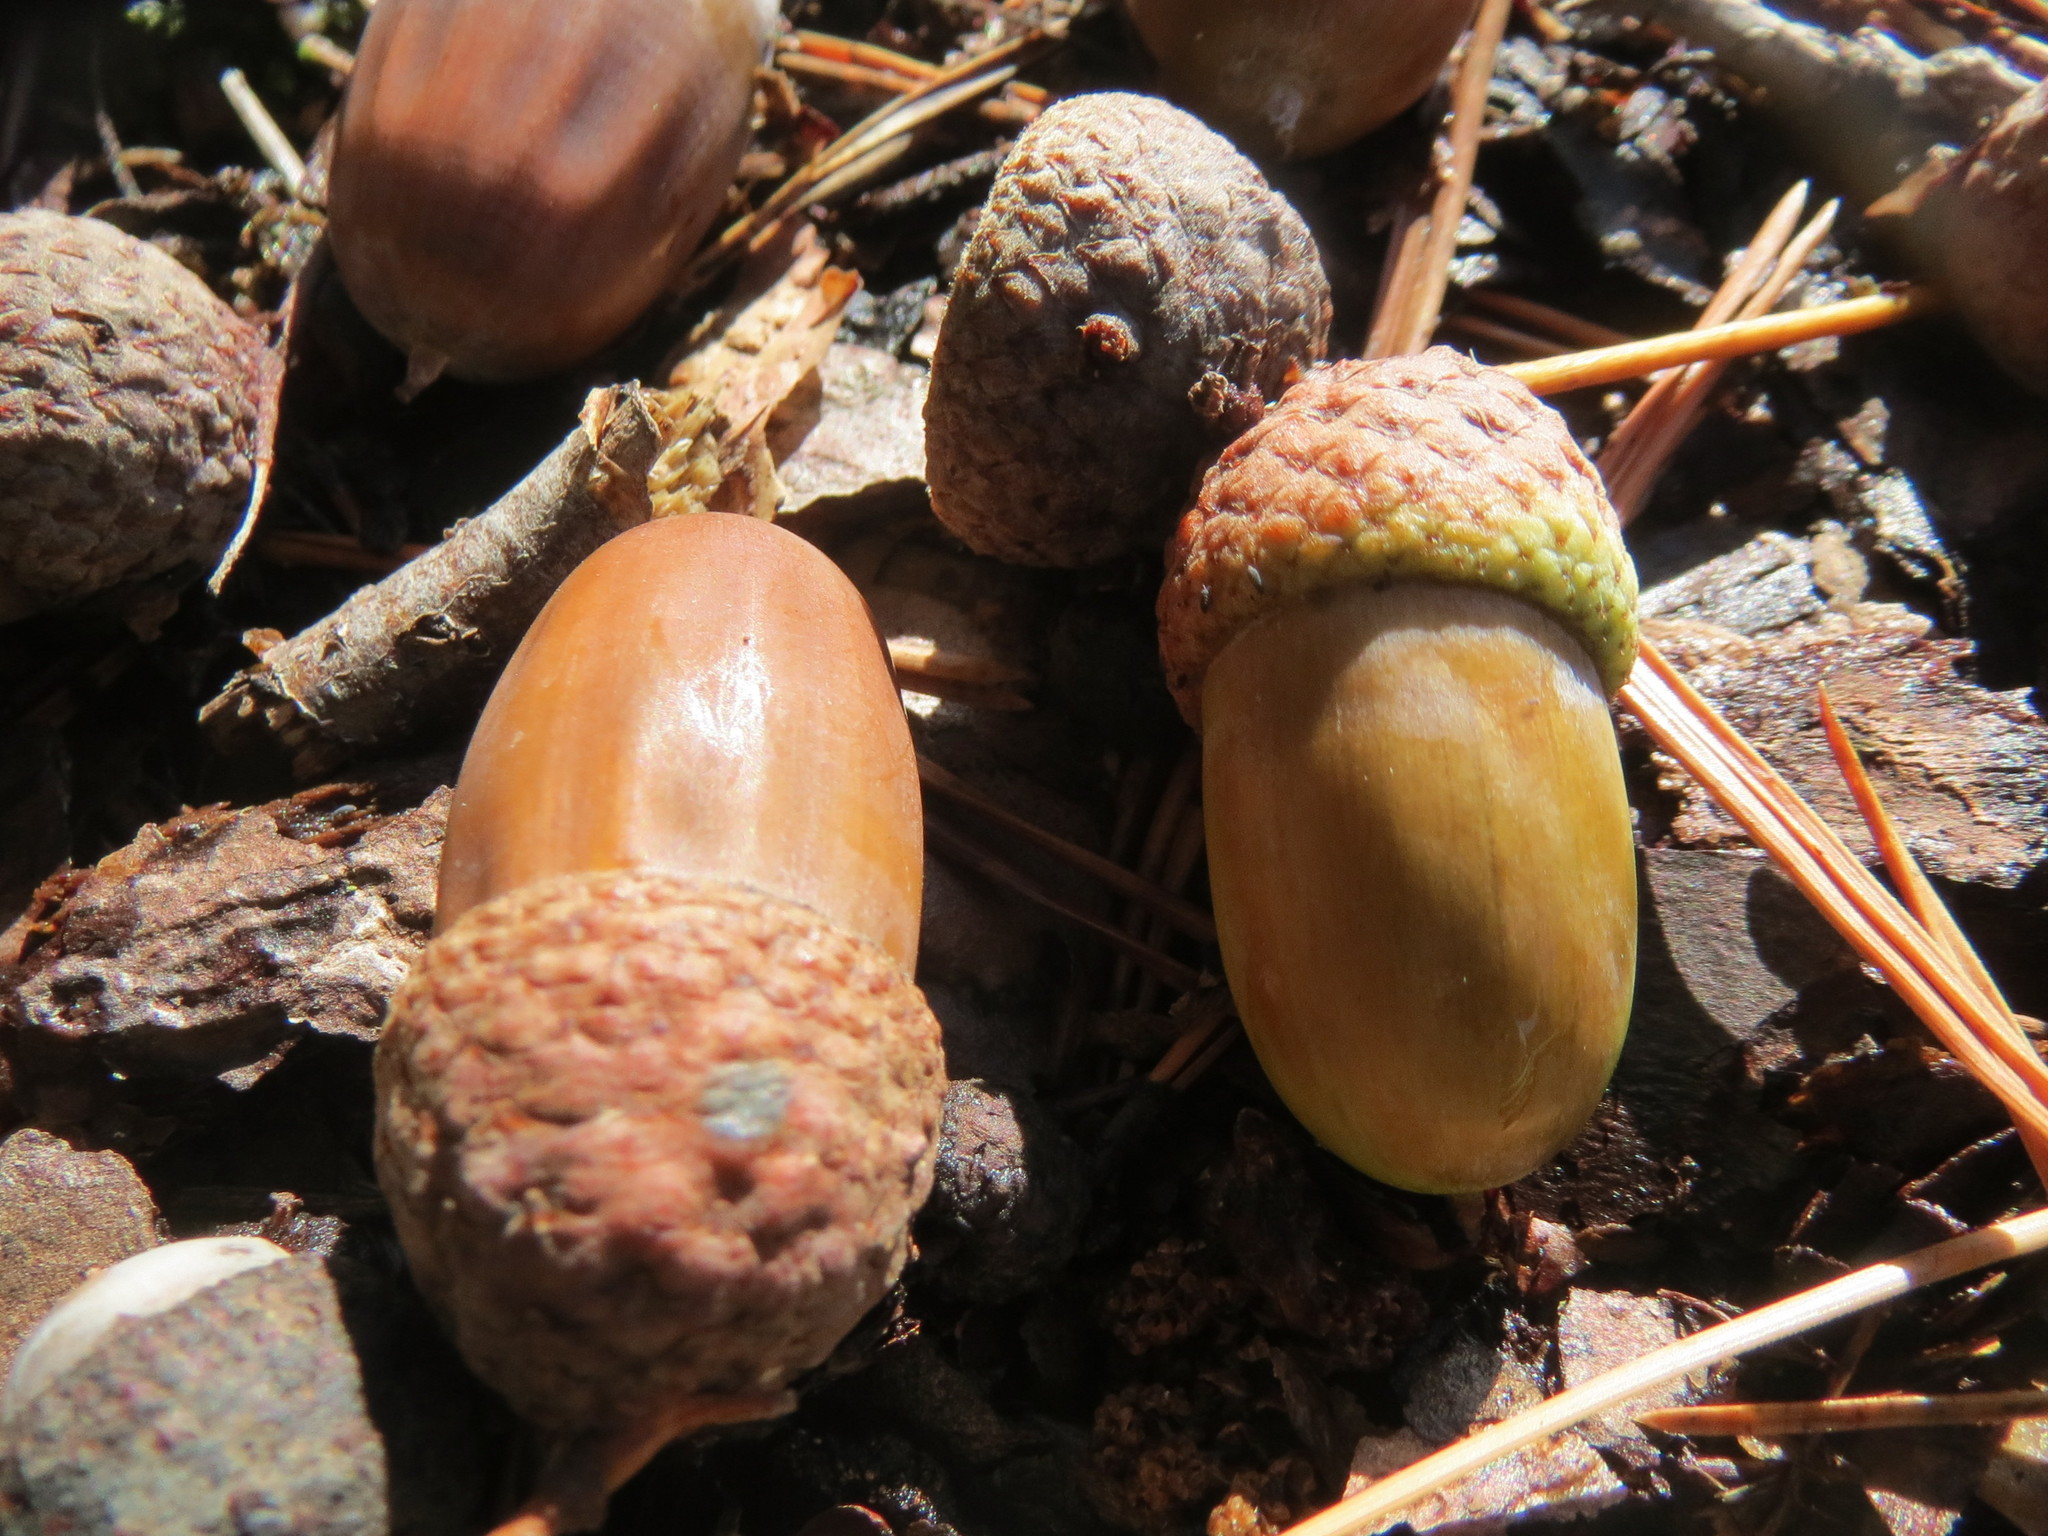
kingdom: Plantae
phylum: Tracheophyta
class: Magnoliopsida
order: Fagales
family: Fagaceae
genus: Quercus
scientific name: Quercus robur
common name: Pedunculate oak
